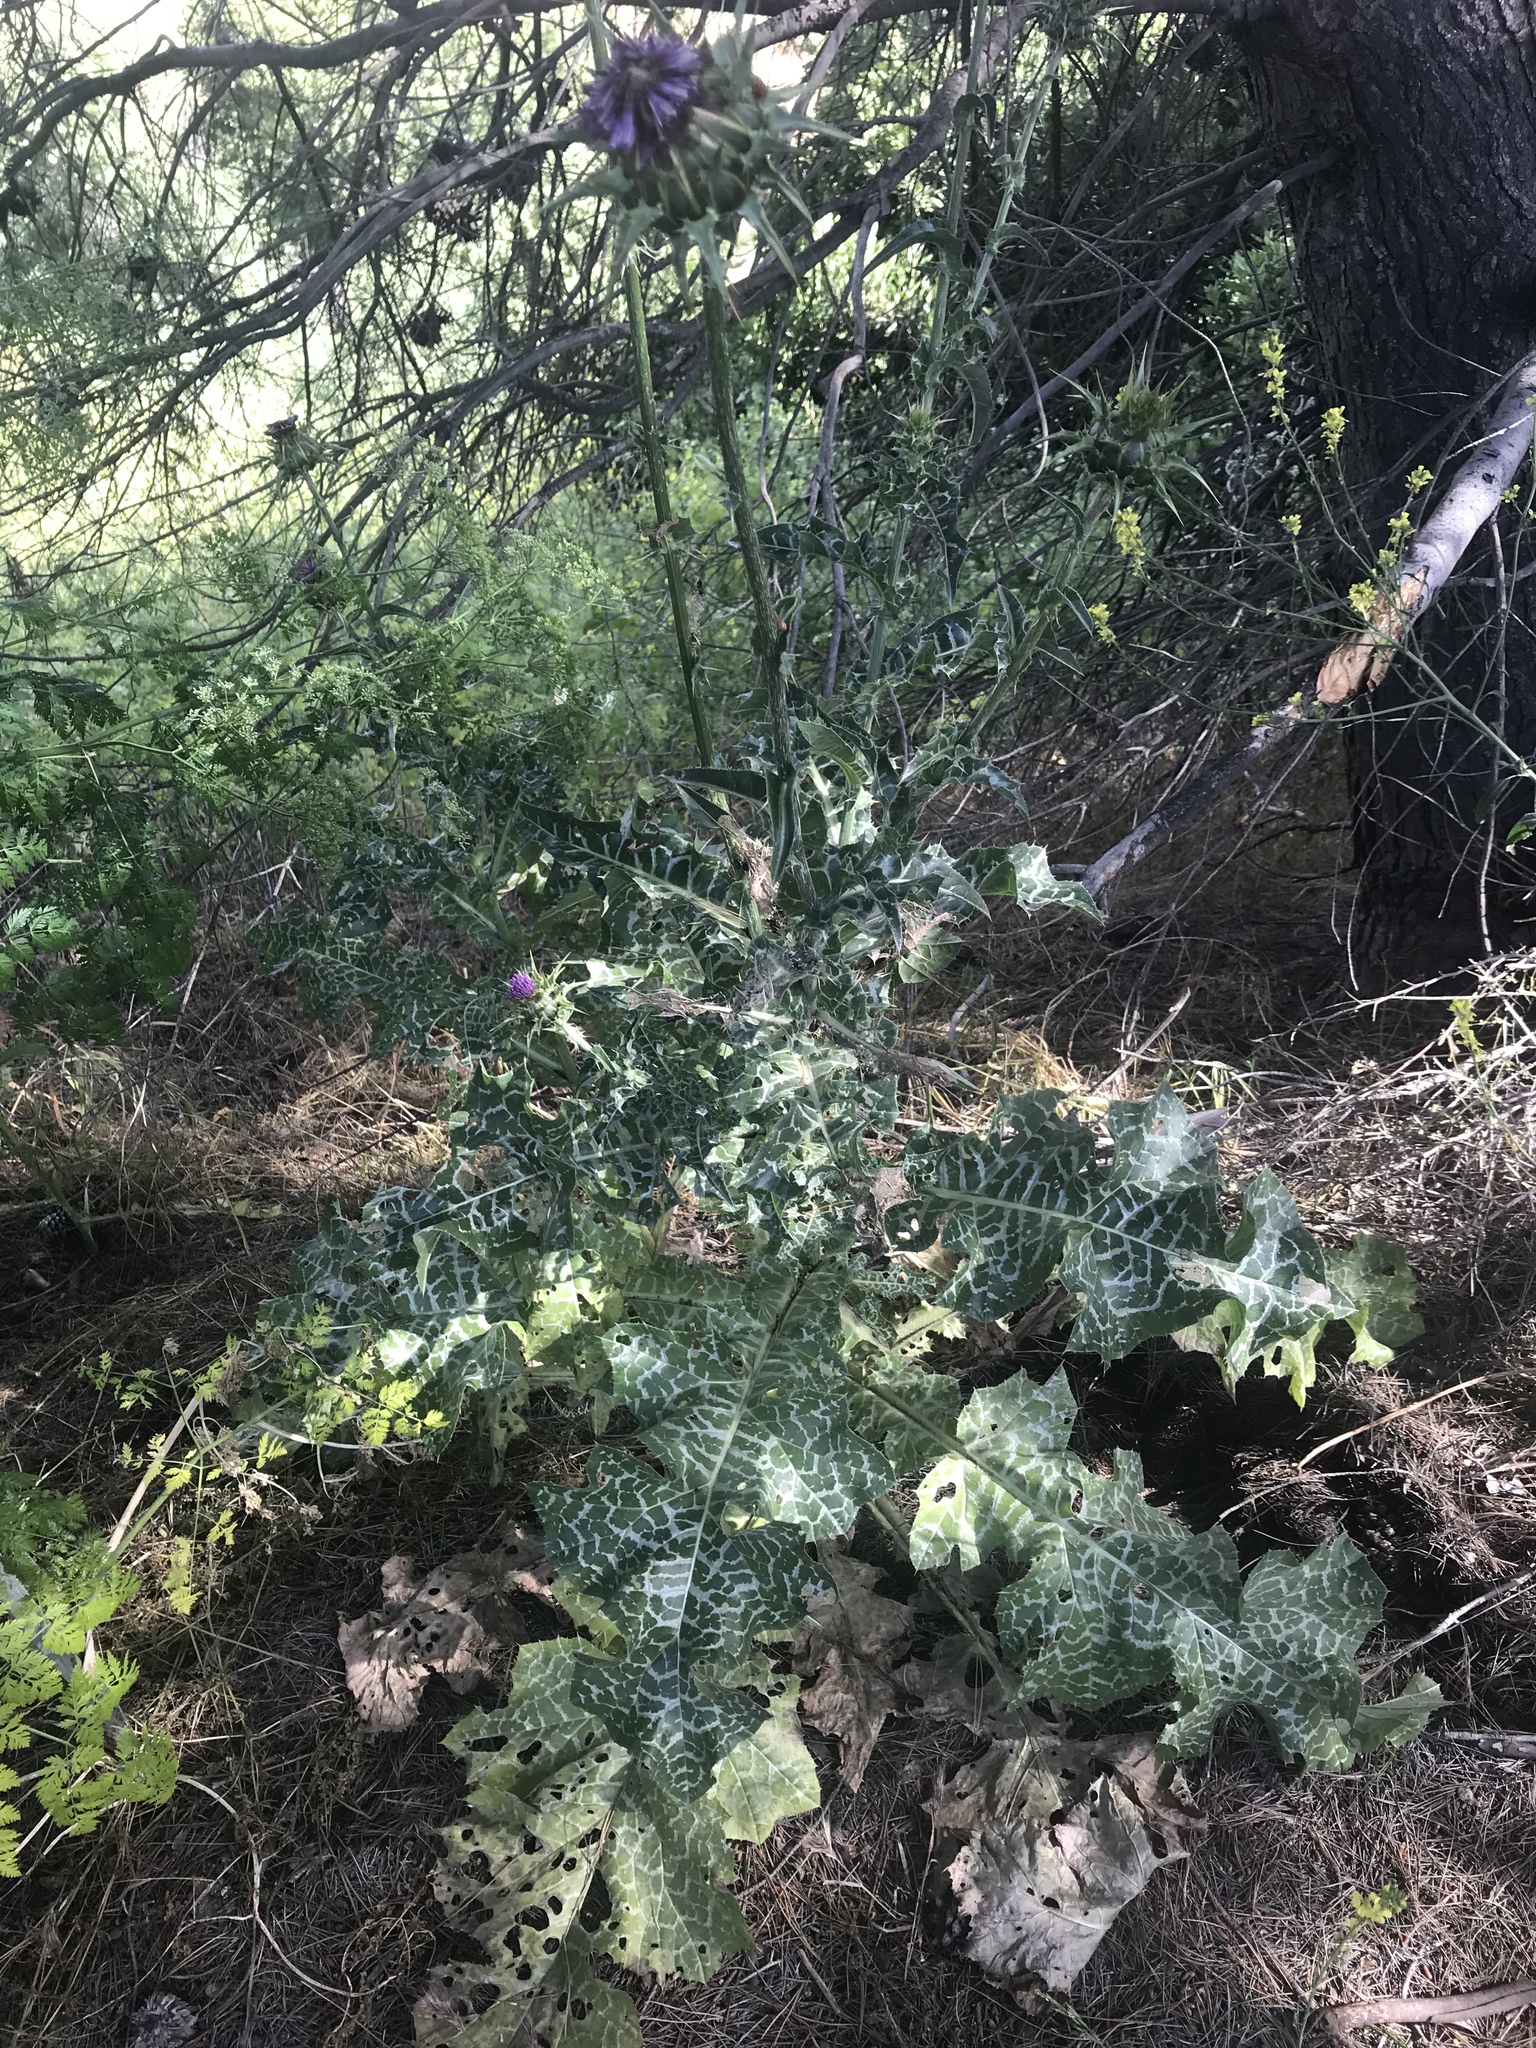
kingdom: Plantae
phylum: Tracheophyta
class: Magnoliopsida
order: Asterales
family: Asteraceae
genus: Silybum
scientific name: Silybum marianum
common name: Milk thistle
